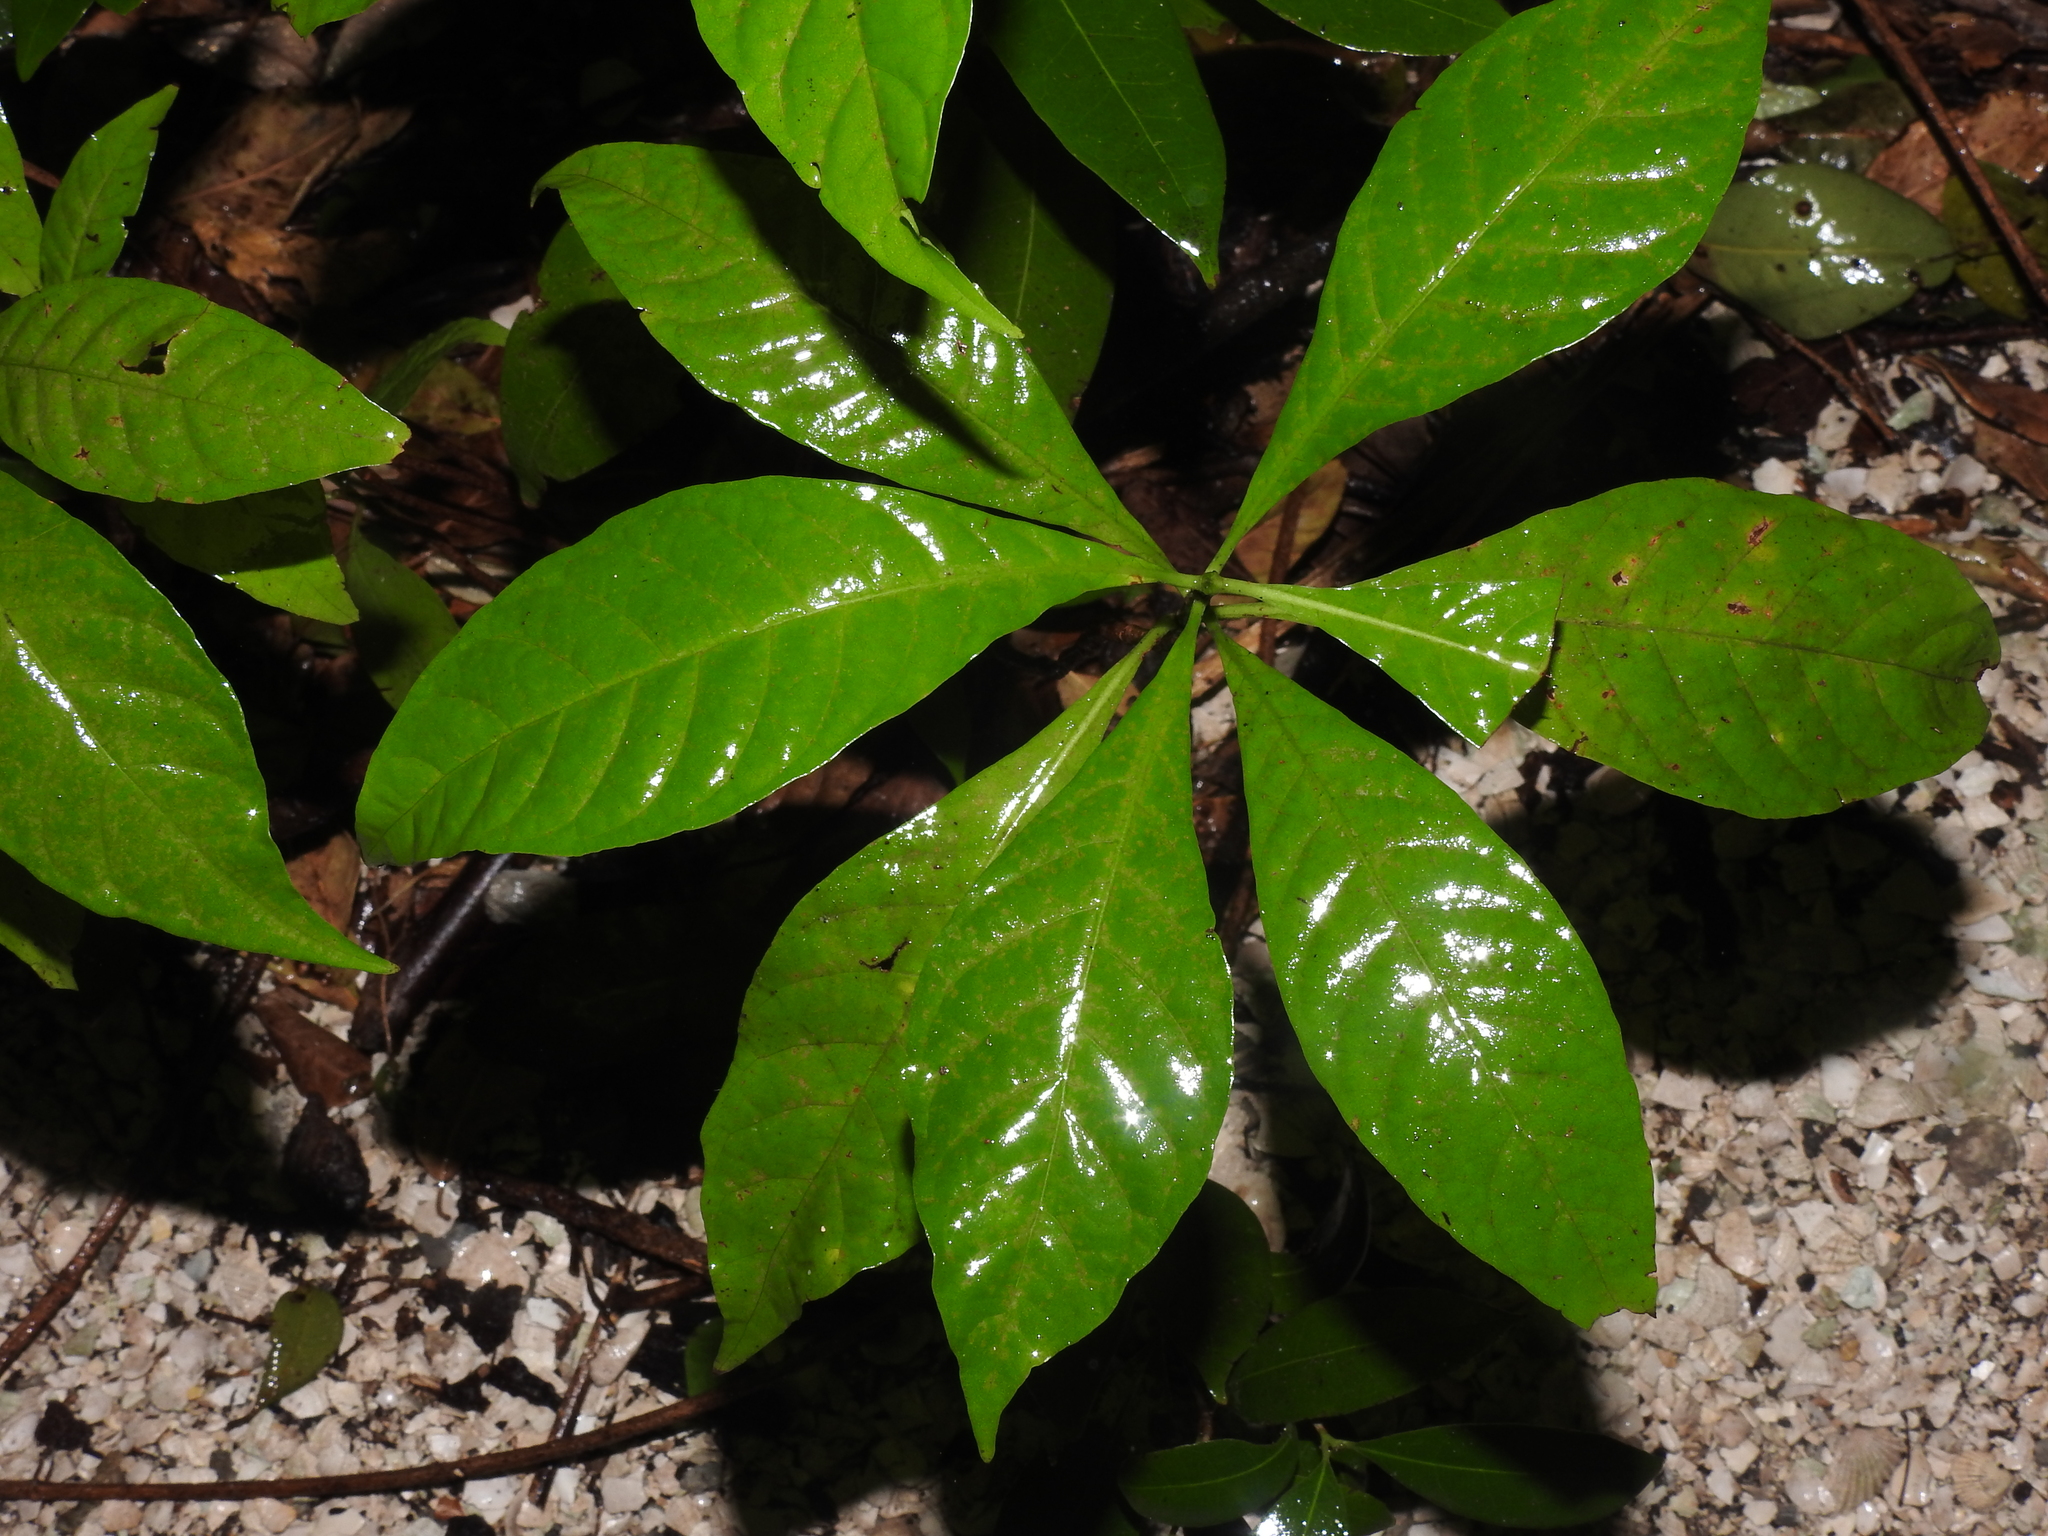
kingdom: Plantae
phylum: Tracheophyta
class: Magnoliopsida
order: Gentianales
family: Rubiaceae
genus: Psychotria
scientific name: Psychotria nervosa
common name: Bastard cankerberry
